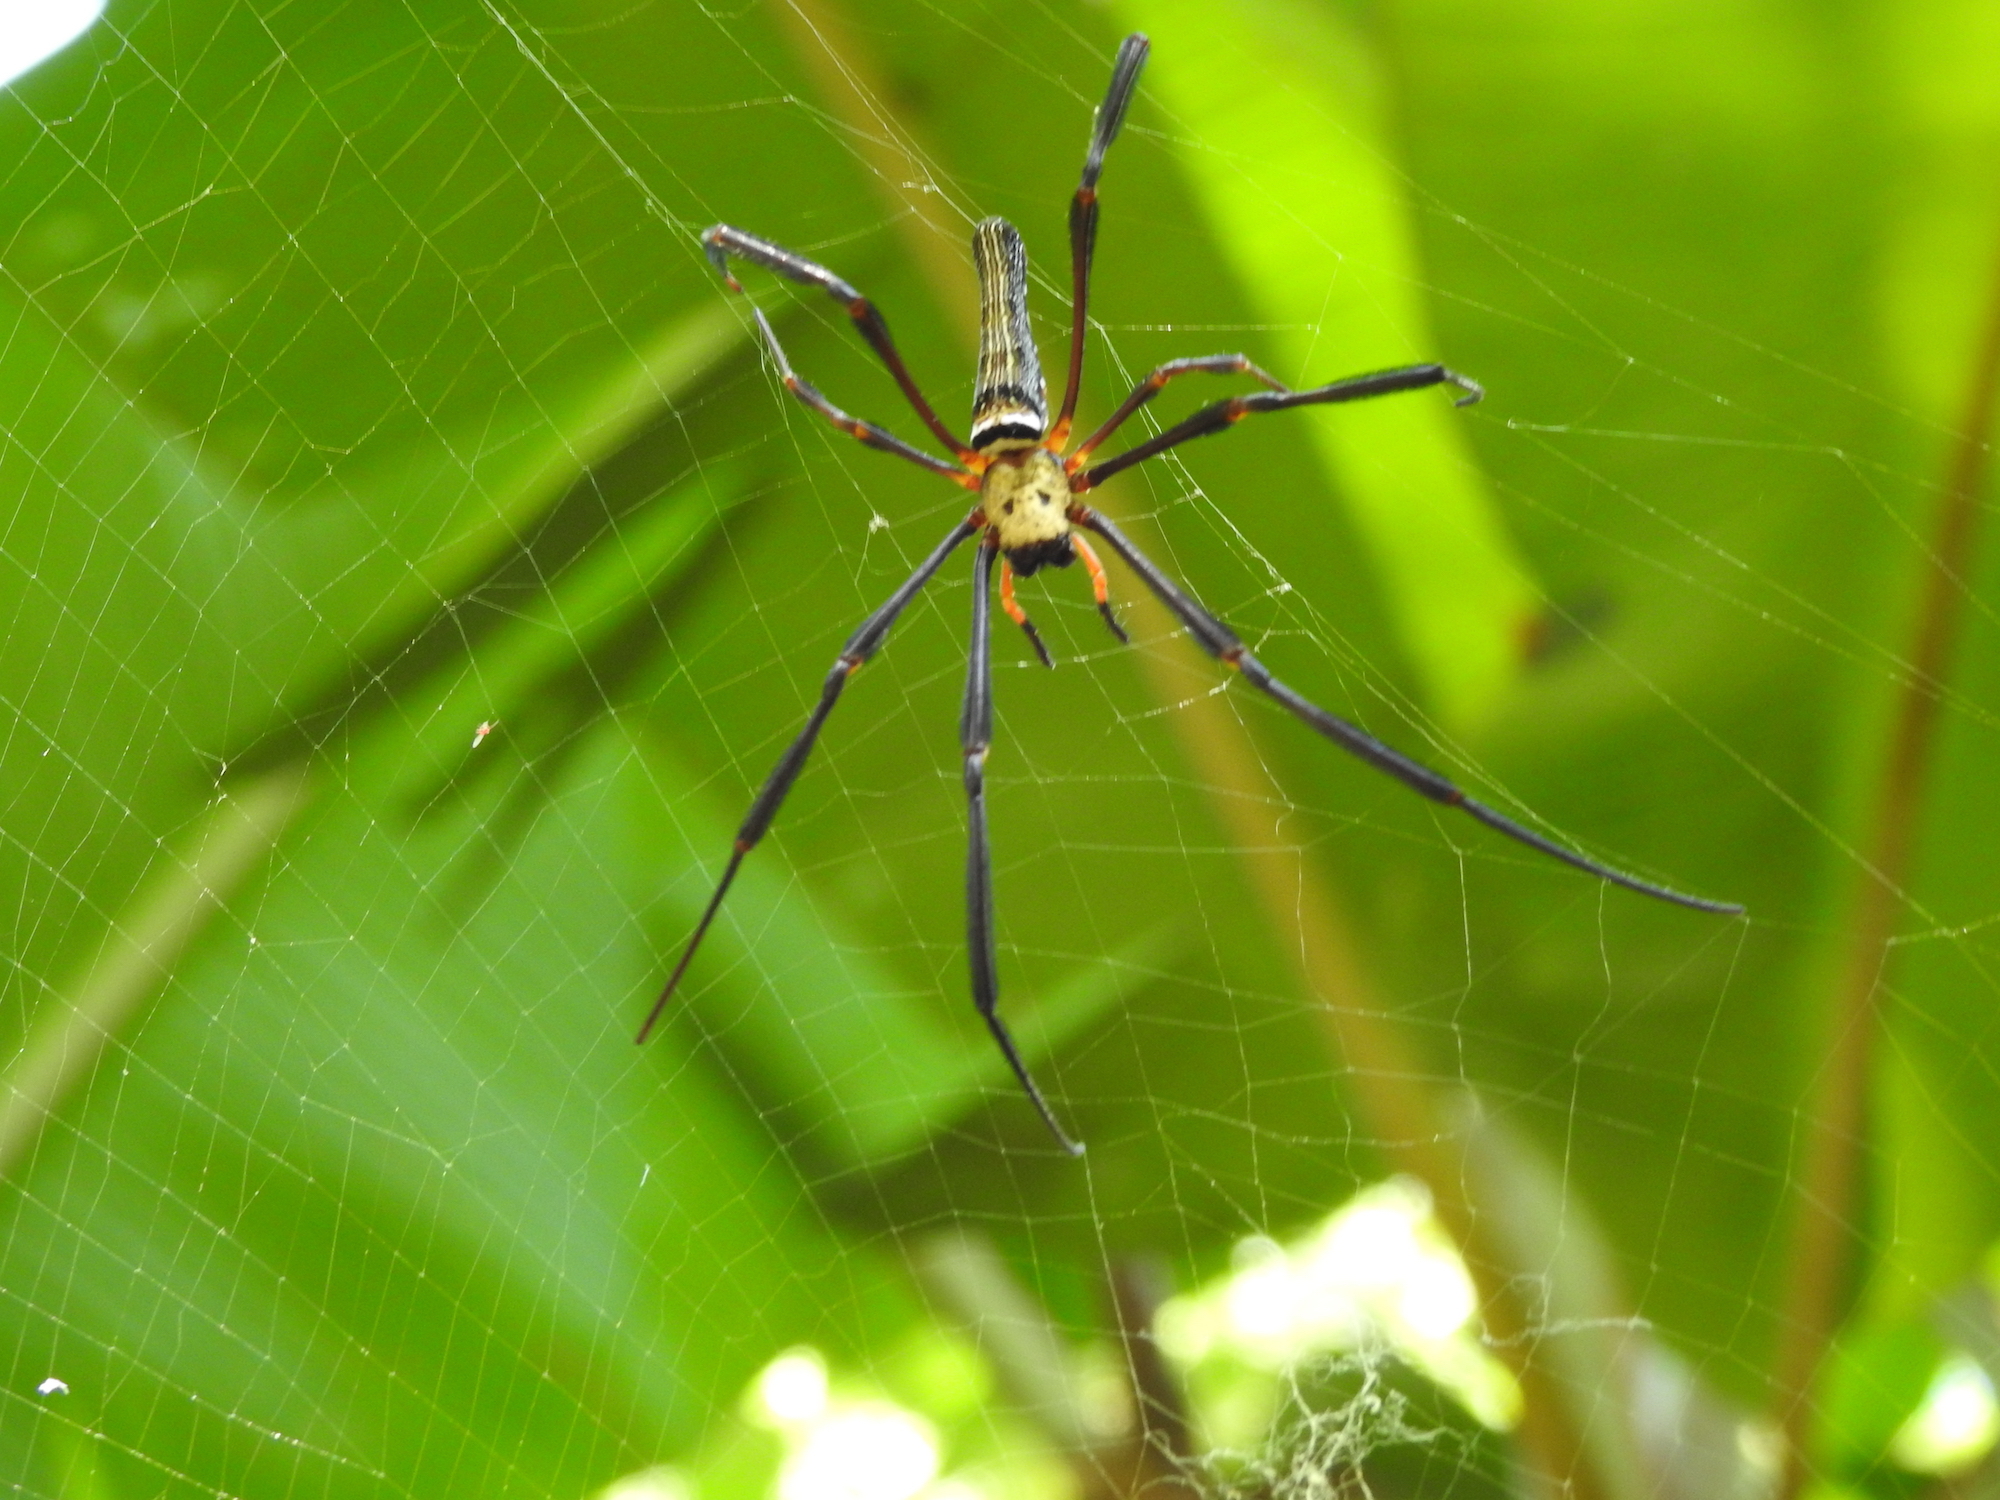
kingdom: Animalia
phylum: Arthropoda
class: Arachnida
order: Araneae
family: Araneidae
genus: Nephila
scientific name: Nephila pilipes
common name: Giant golden orb weaver
